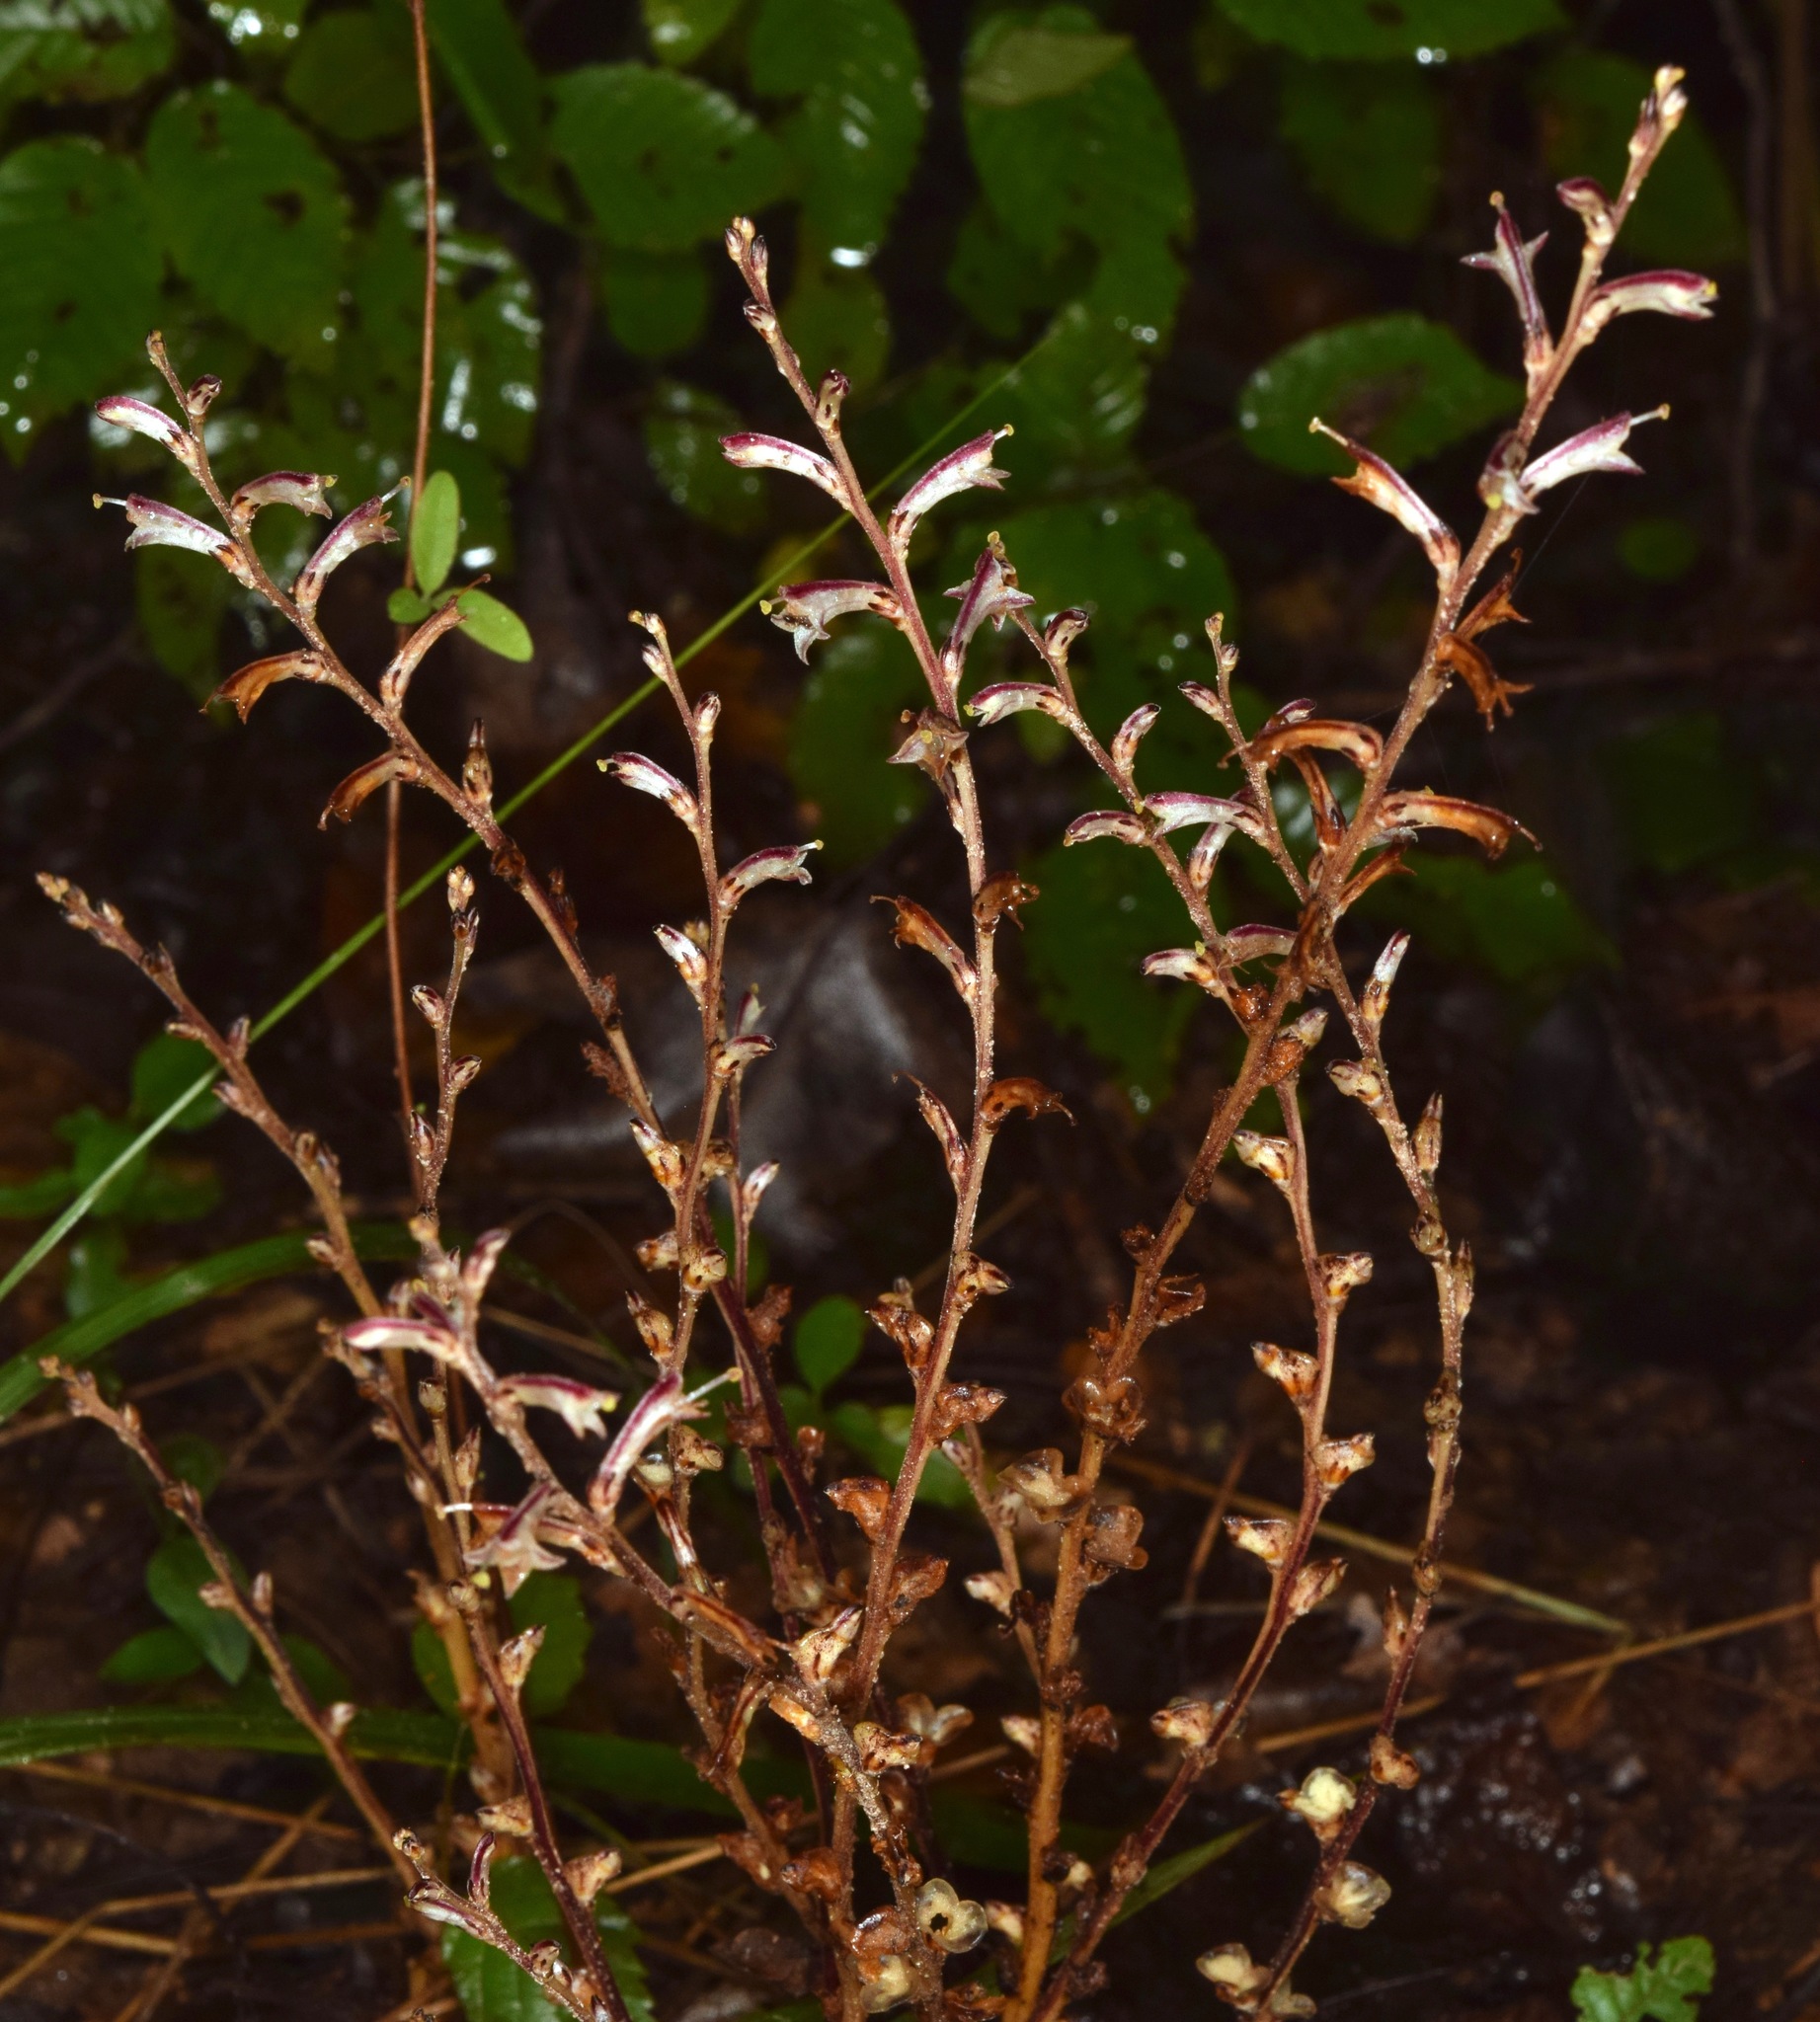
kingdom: Plantae
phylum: Tracheophyta
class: Magnoliopsida
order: Lamiales
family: Orobanchaceae
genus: Epifagus
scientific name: Epifagus virginiana
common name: Beechdrops
